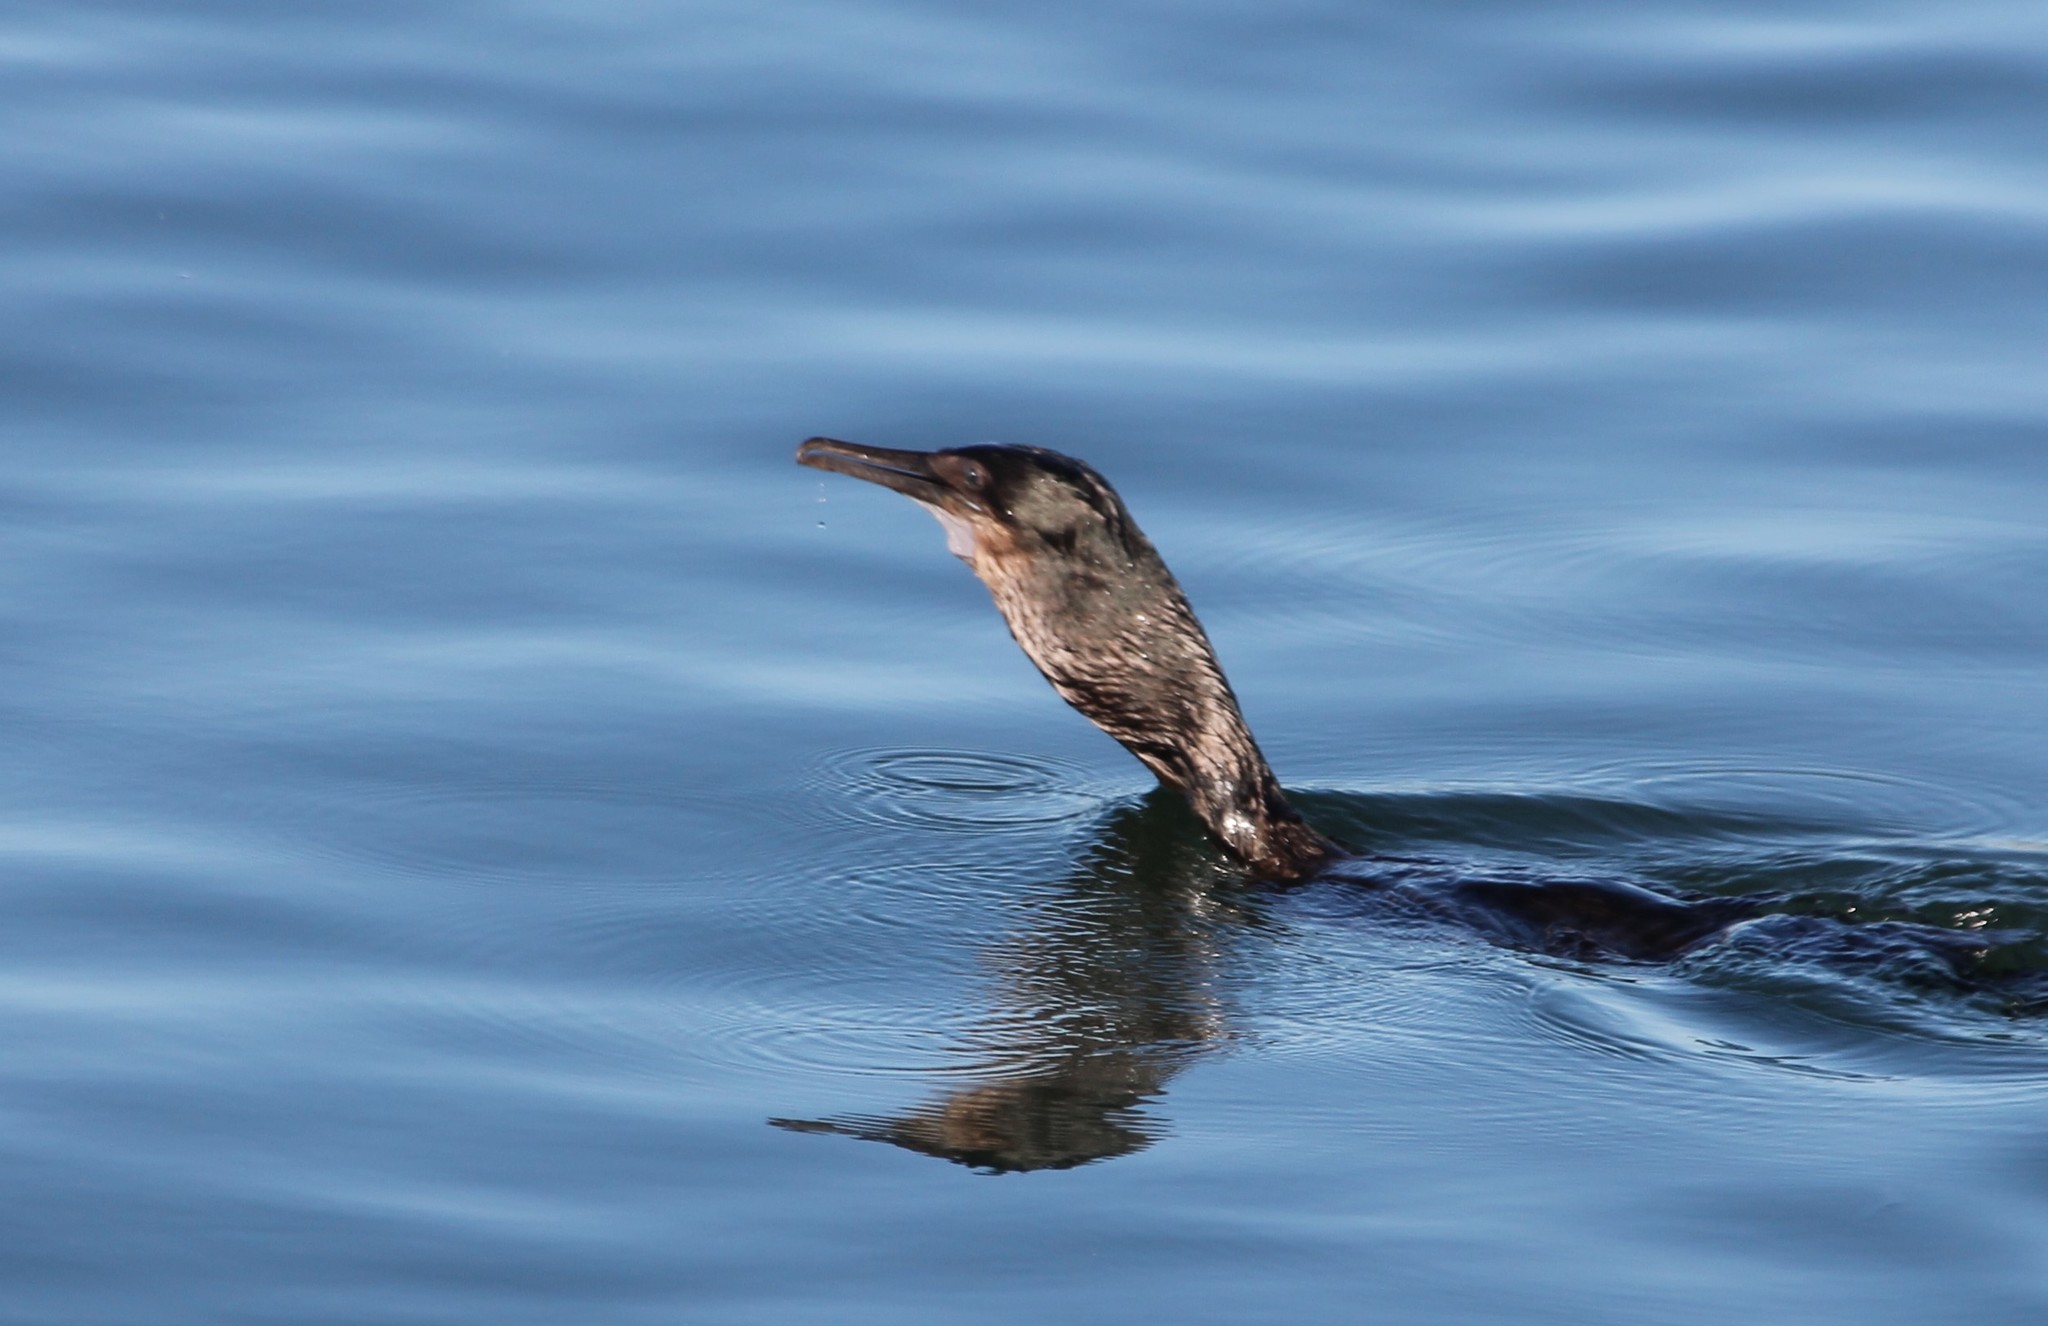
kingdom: Animalia
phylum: Chordata
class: Aves
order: Suliformes
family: Phalacrocoracidae
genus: Urile
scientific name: Urile penicillatus
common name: Brandt's cormorant
